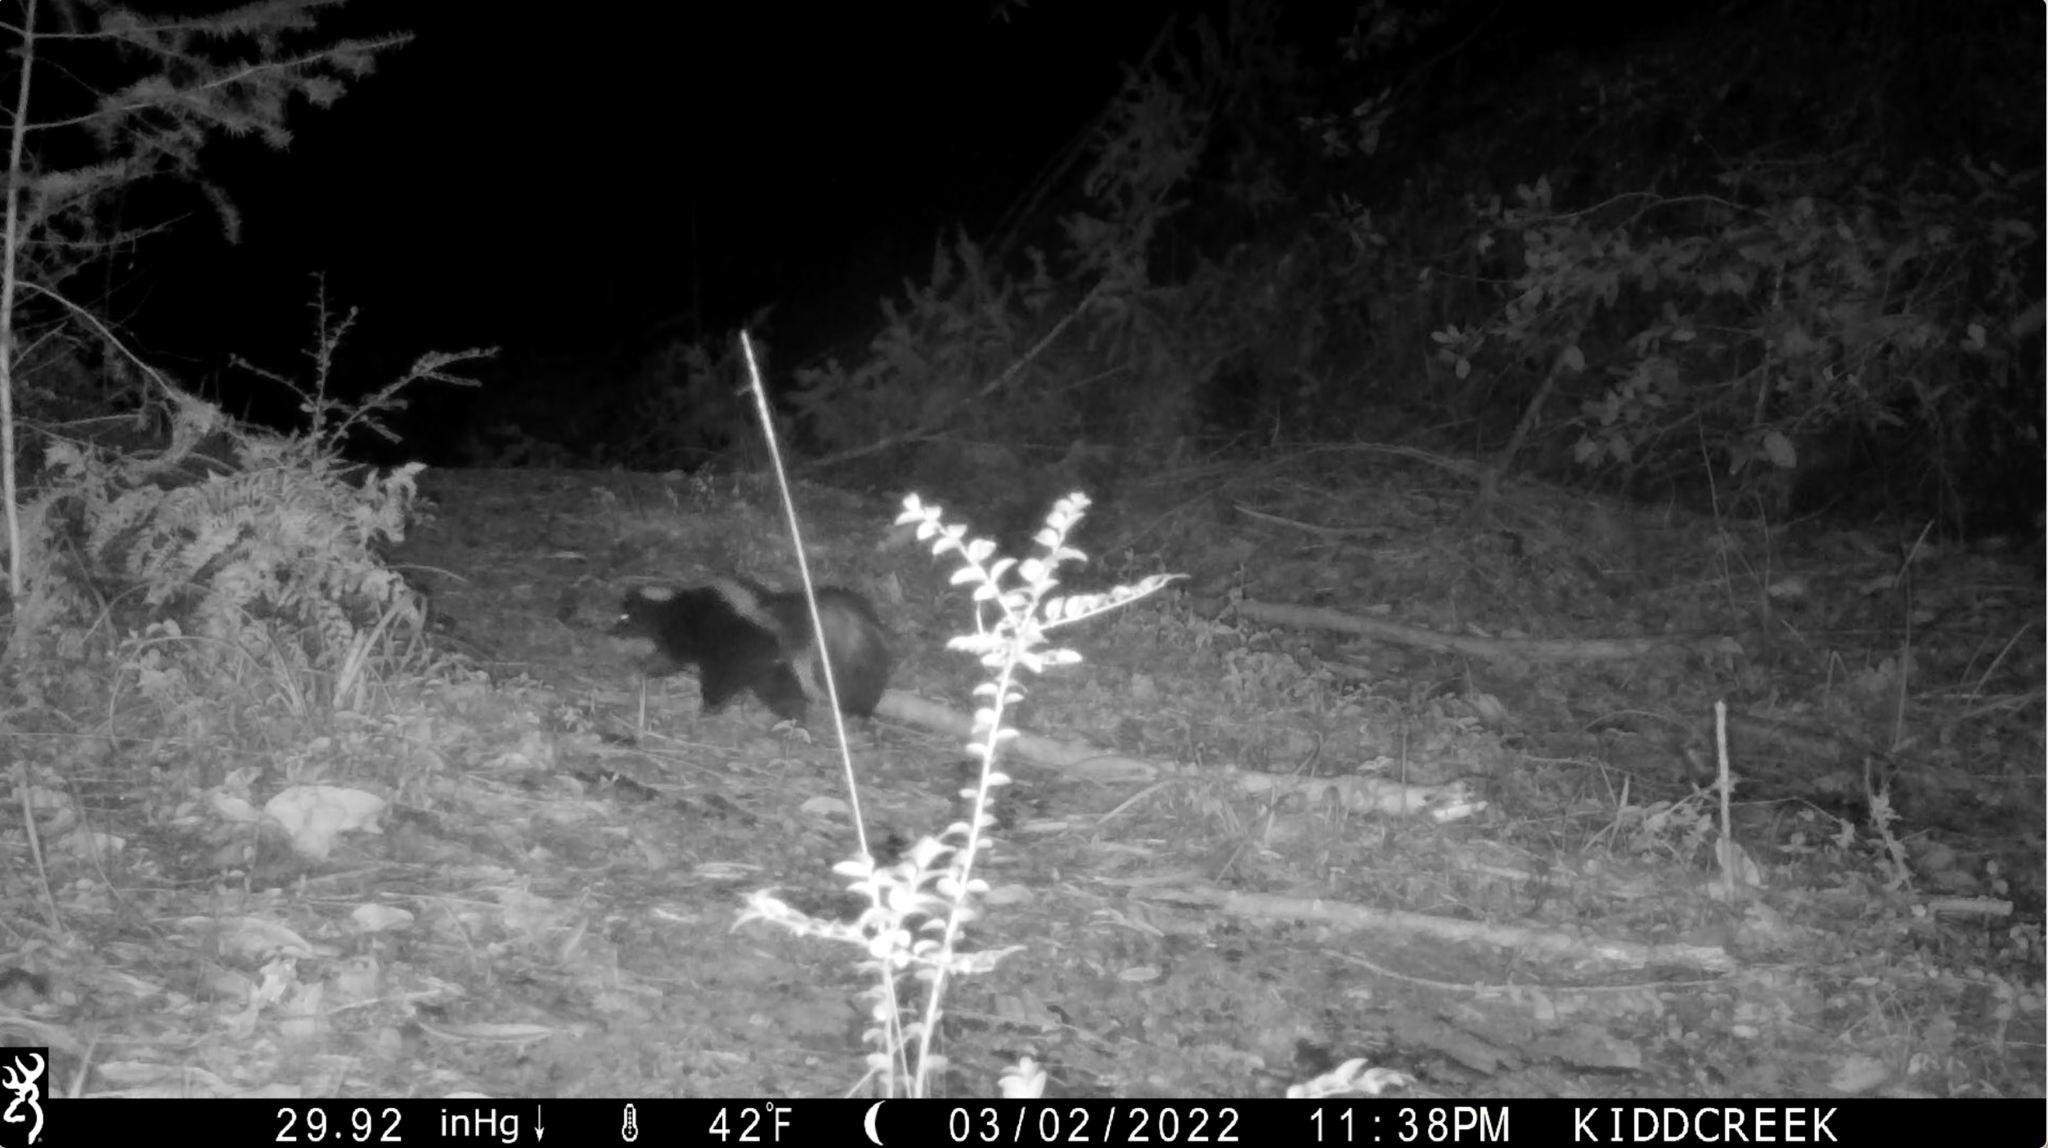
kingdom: Animalia
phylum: Chordata
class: Mammalia
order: Carnivora
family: Mephitidae
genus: Mephitis
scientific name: Mephitis mephitis
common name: Striped skunk
